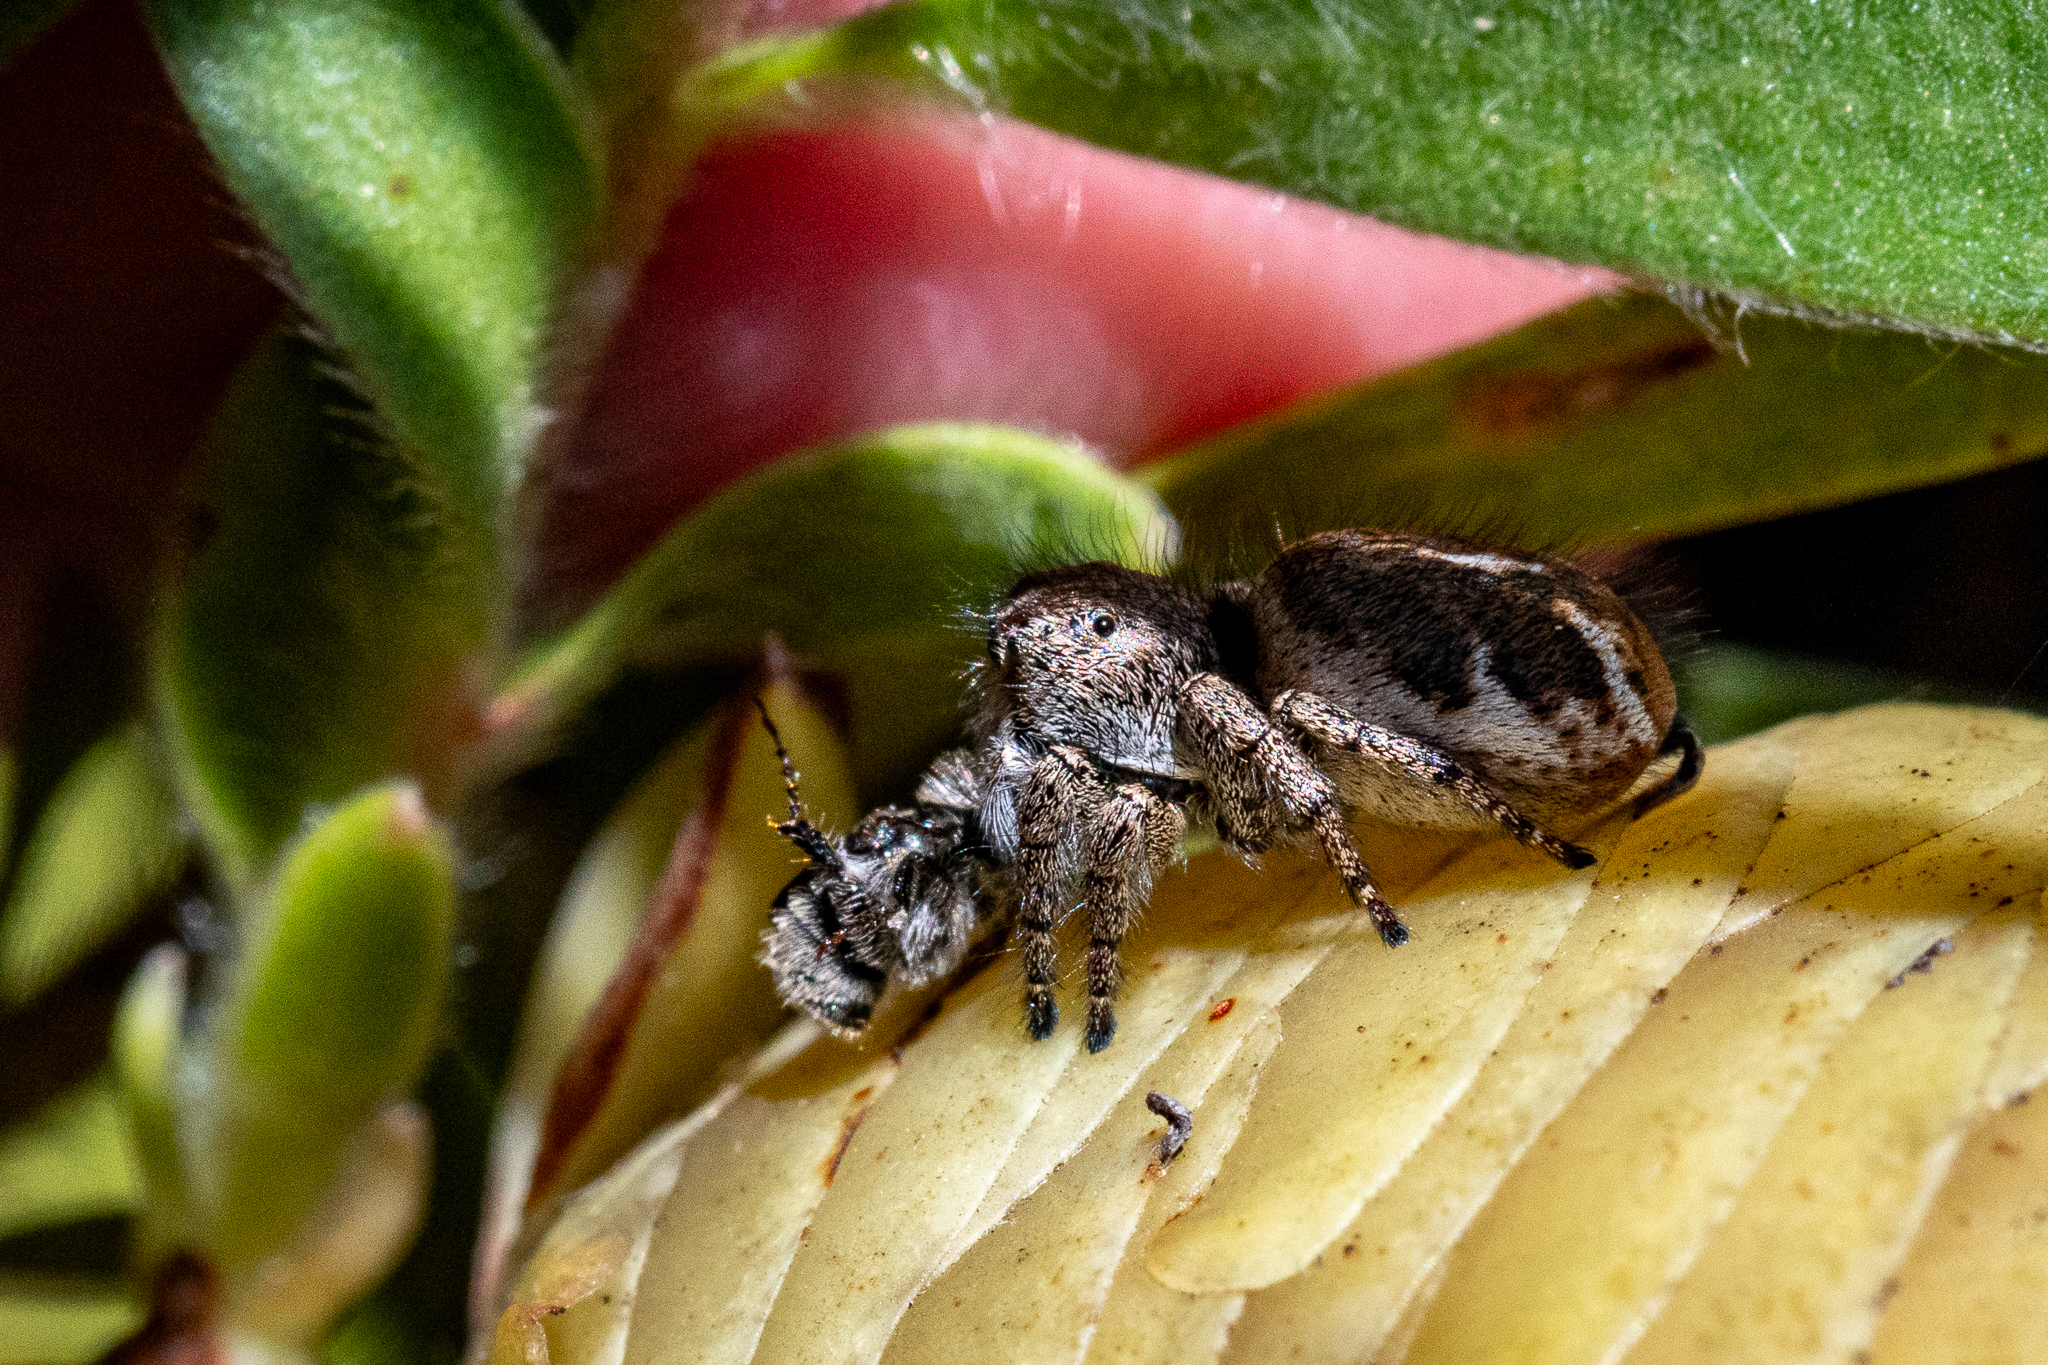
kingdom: Animalia
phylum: Arthropoda
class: Arachnida
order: Araneae
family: Salticidae
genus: Baryphas
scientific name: Baryphas ahenus
